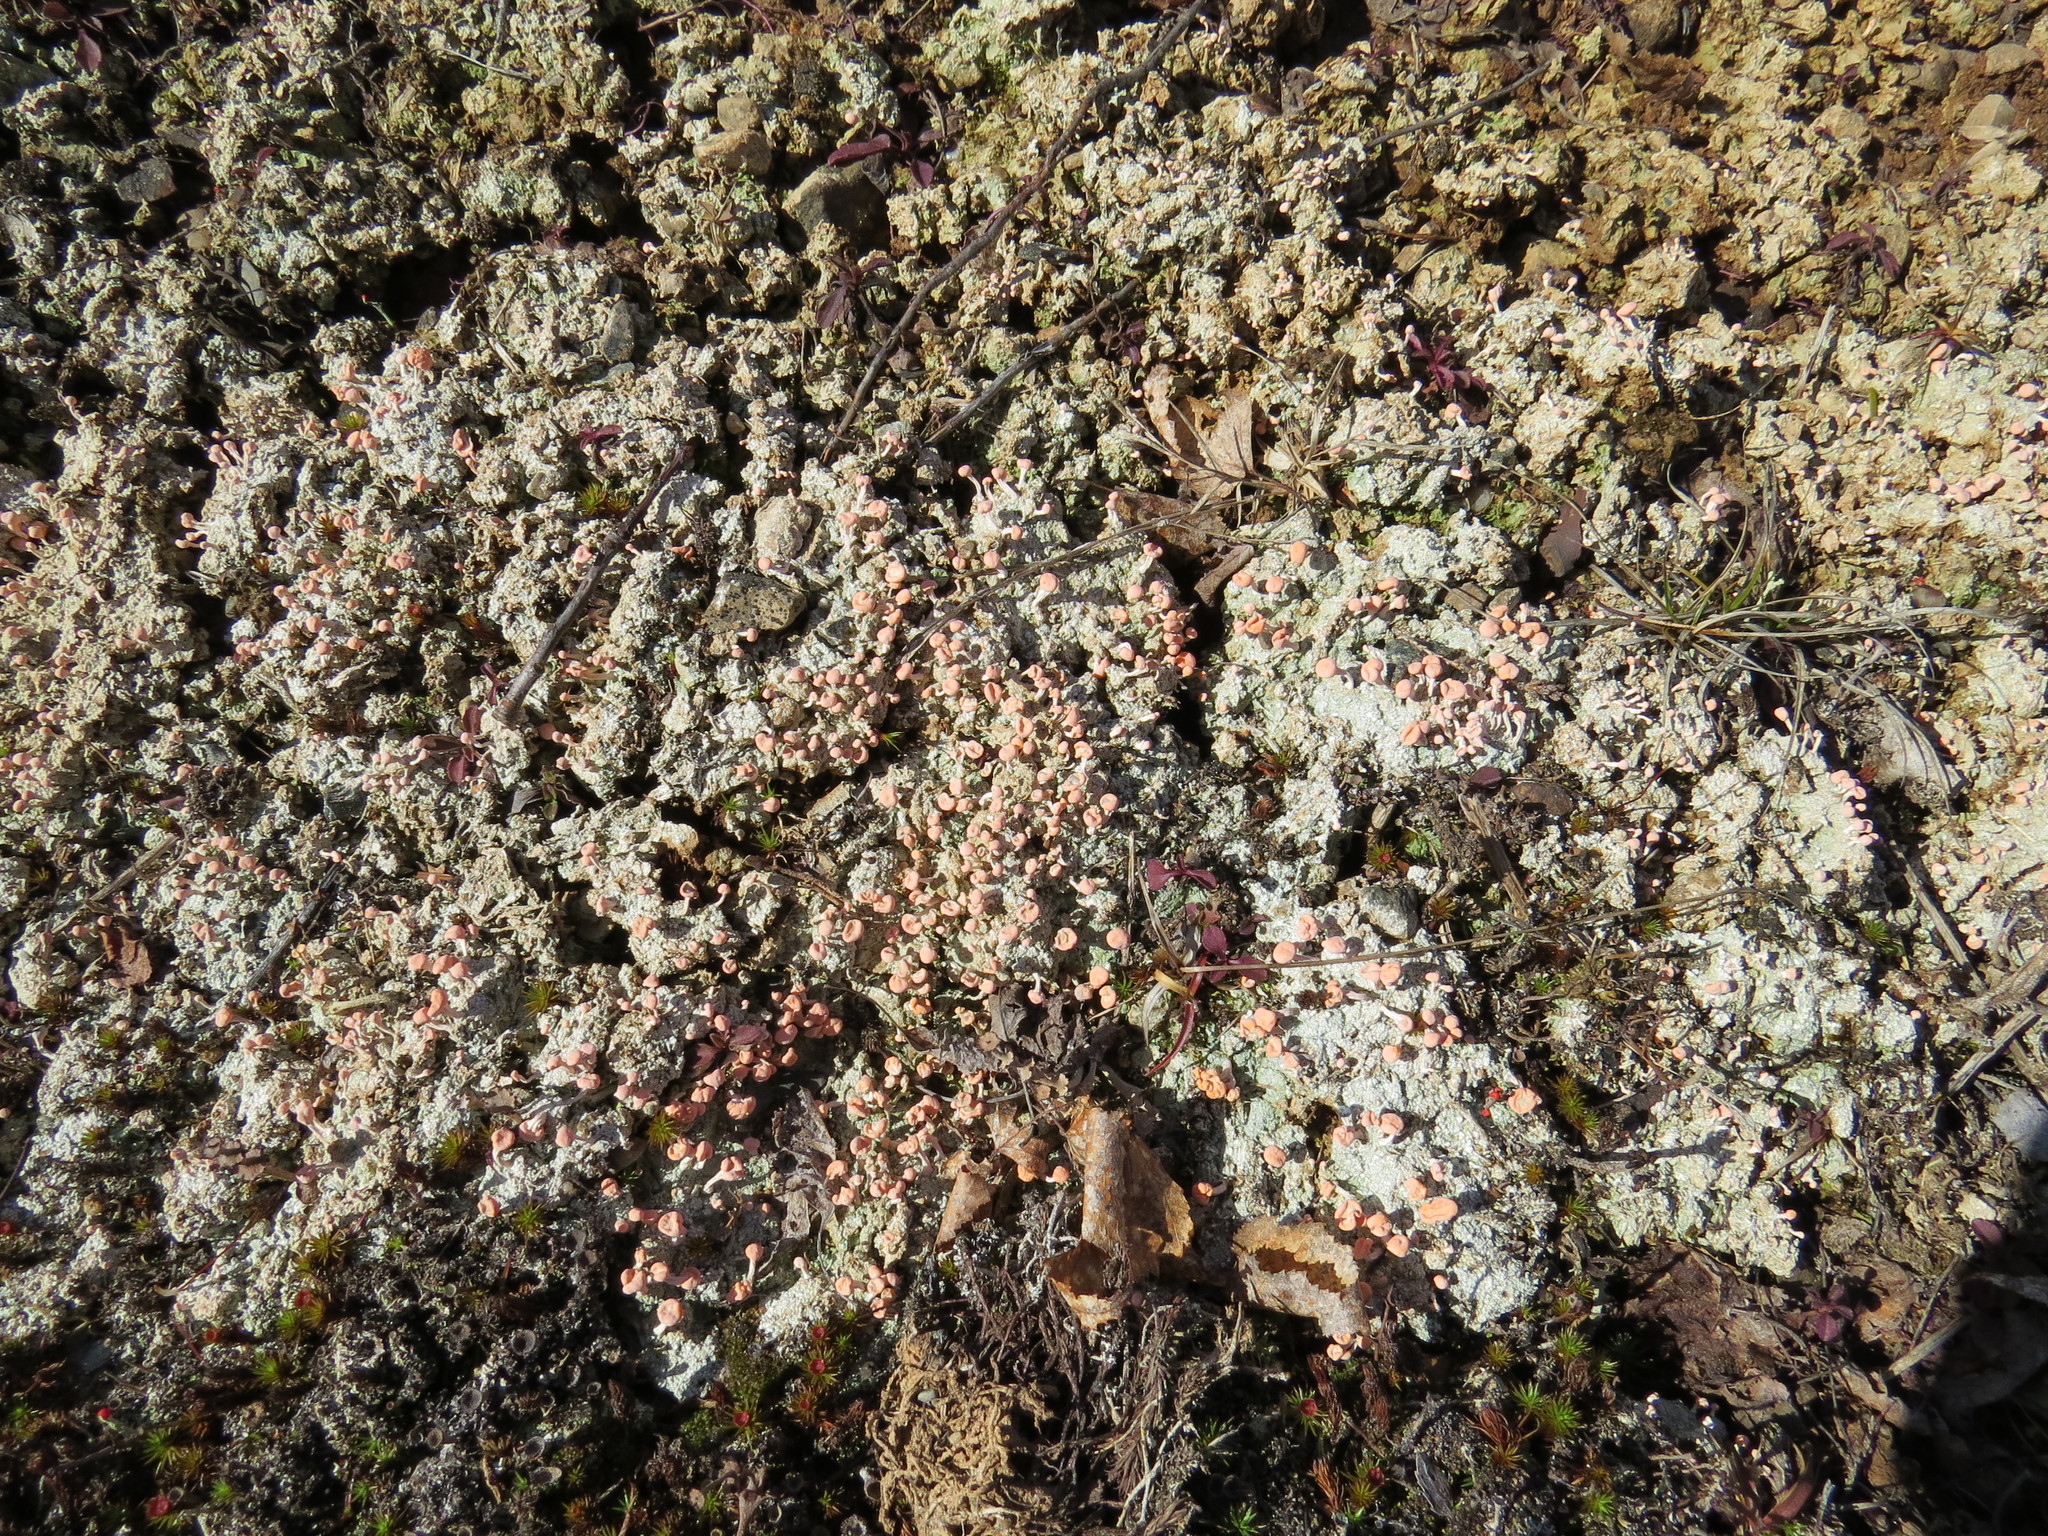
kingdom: Fungi
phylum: Ascomycota
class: Lecanoromycetes
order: Pertusariales
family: Icmadophilaceae
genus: Dibaeis
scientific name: Dibaeis baeomyces
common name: Pink earth lichen
